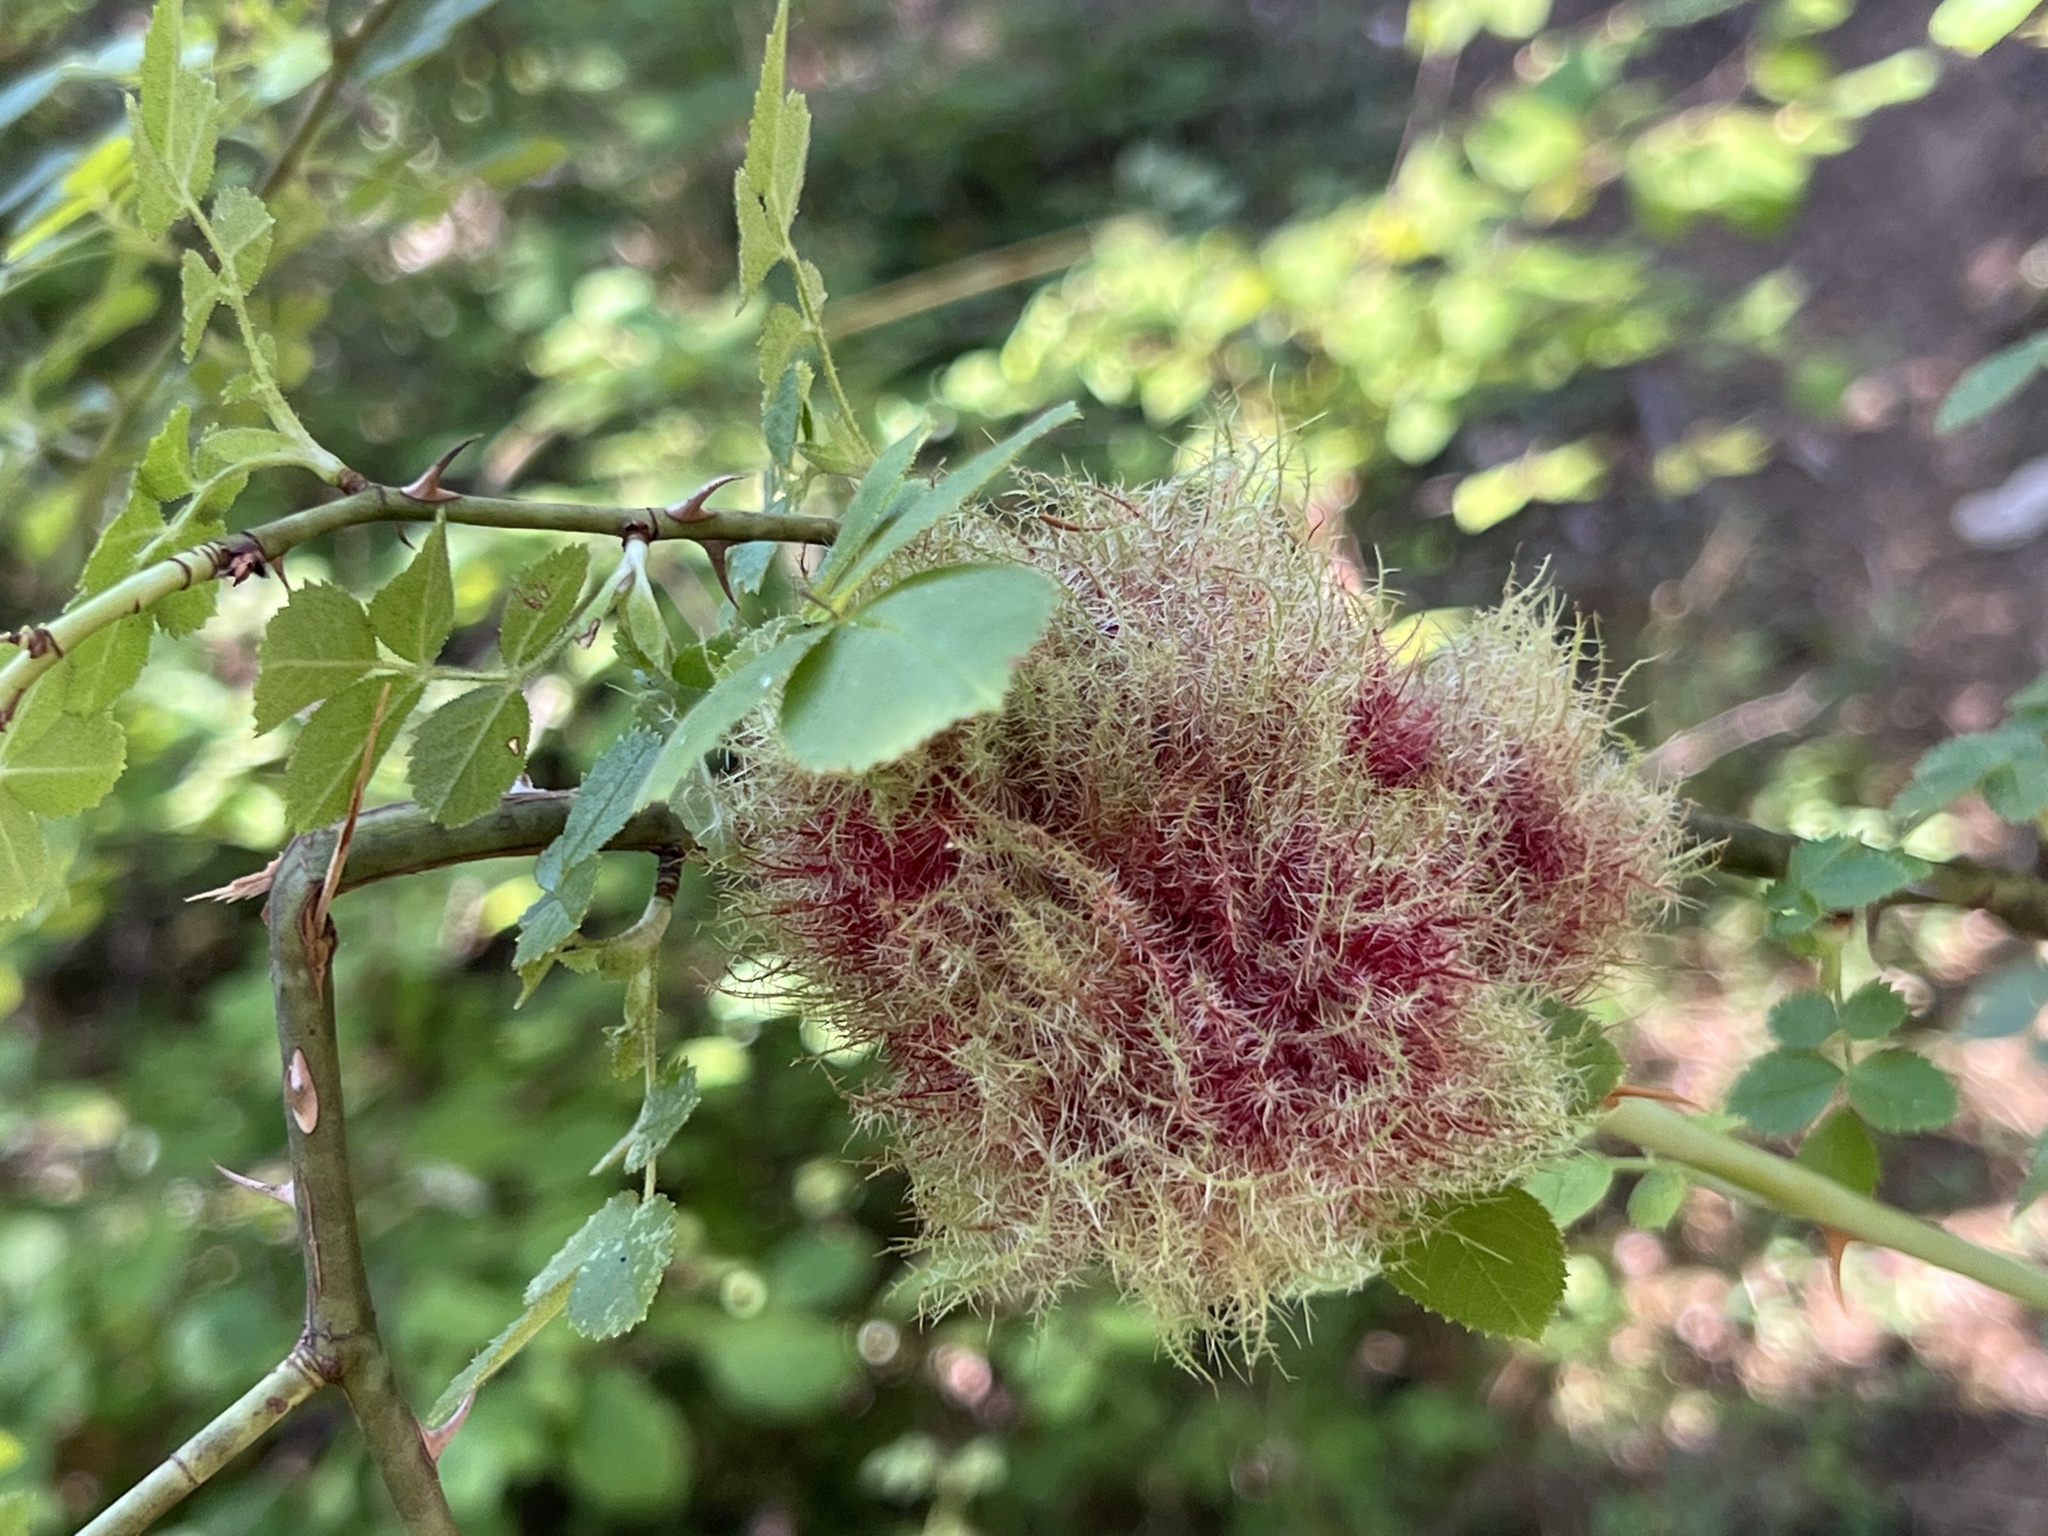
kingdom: Animalia
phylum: Arthropoda
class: Insecta
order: Hymenoptera
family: Cynipidae
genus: Diplolepis
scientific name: Diplolepis rosae
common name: Bedeguar gall
